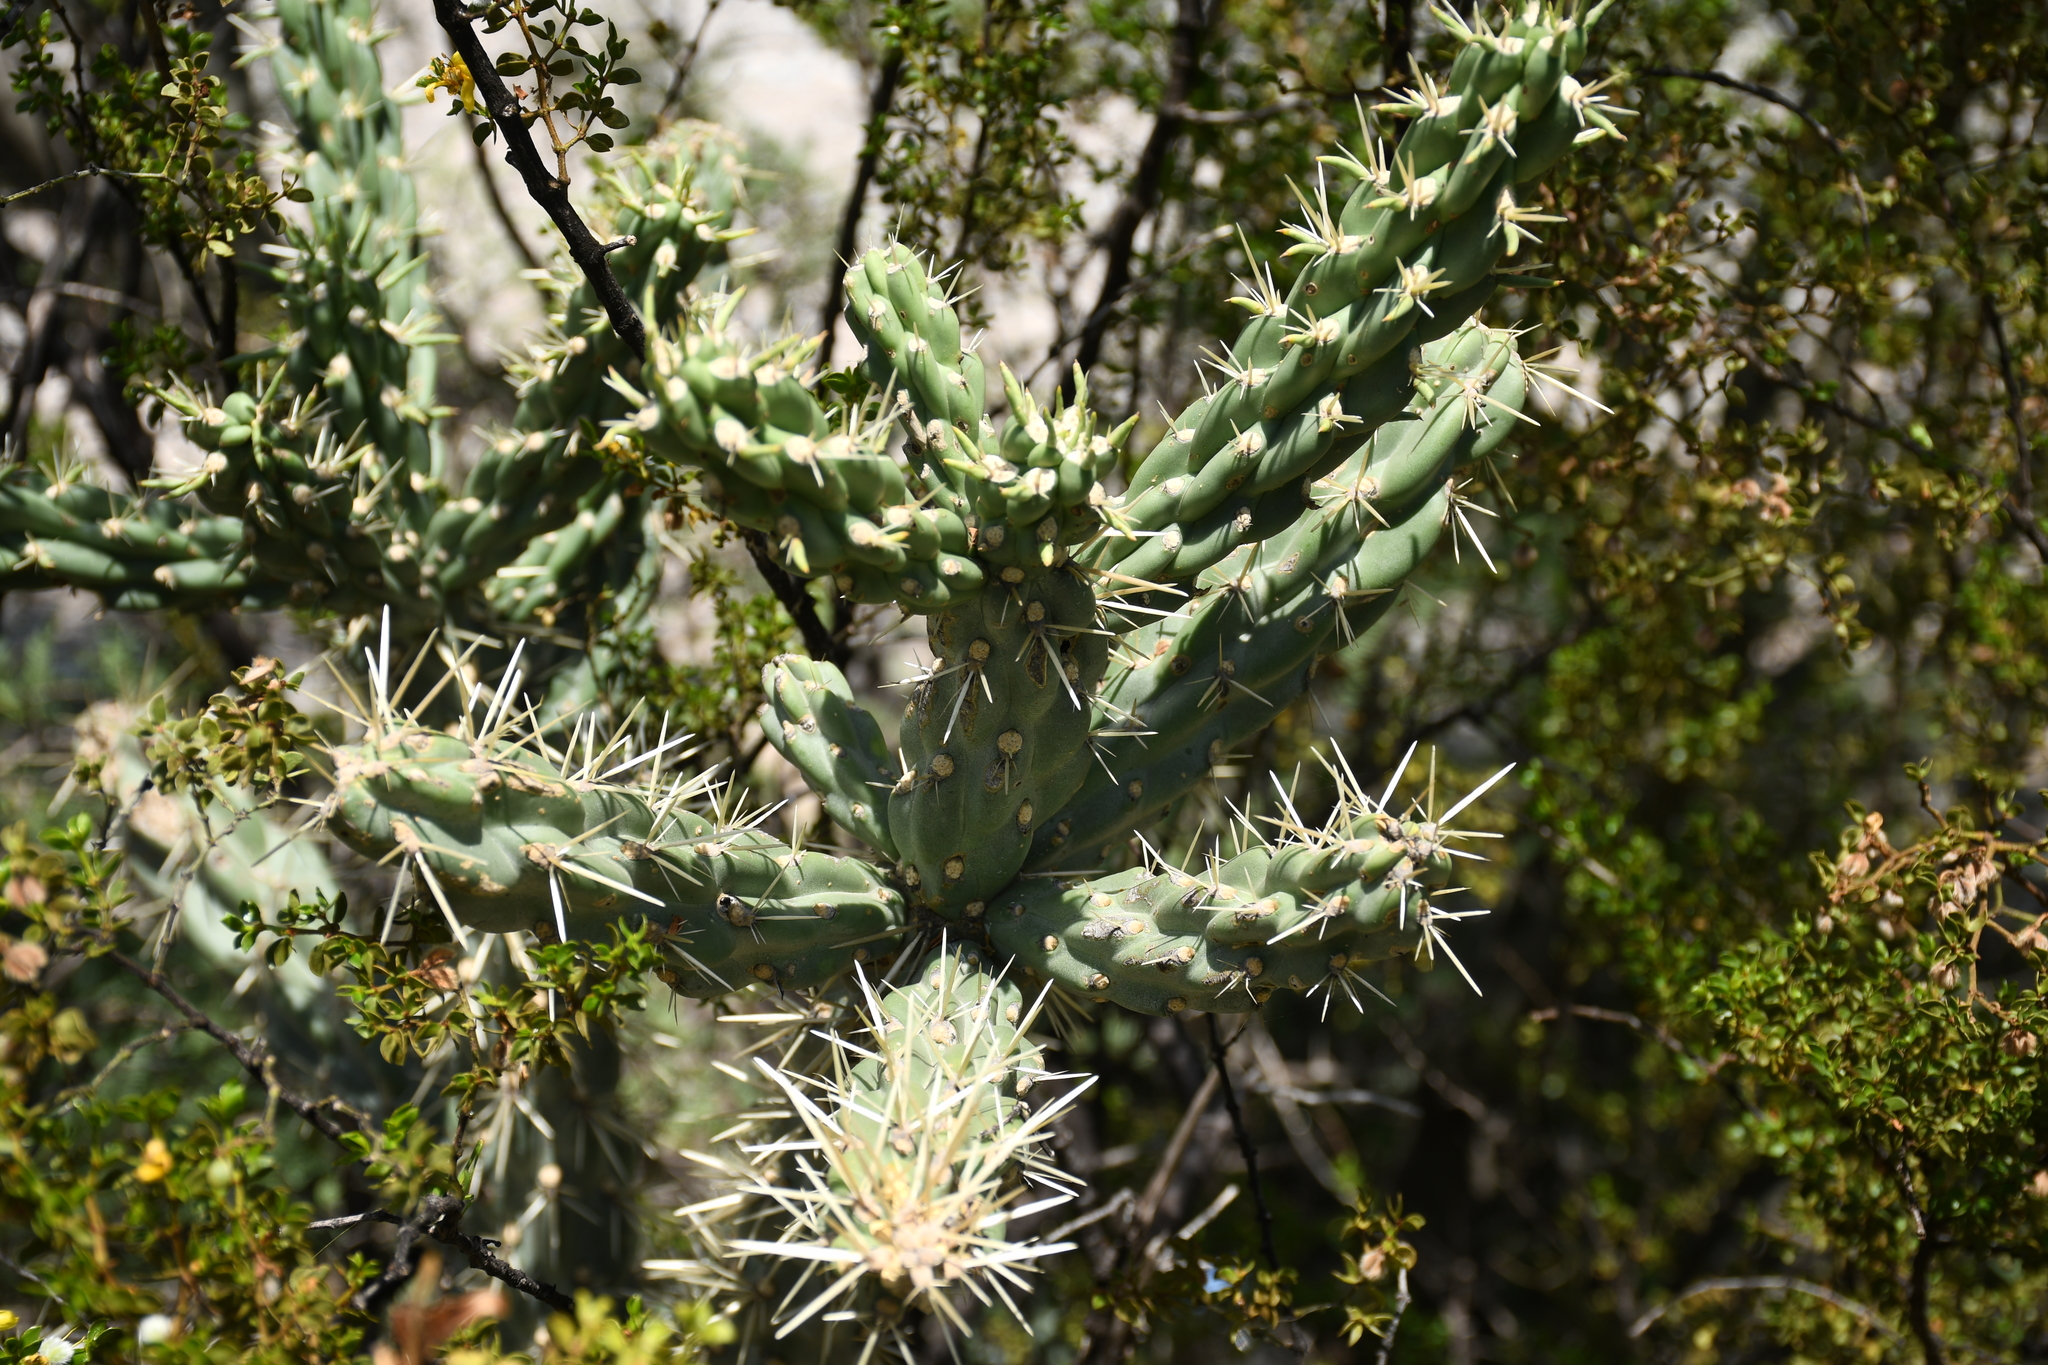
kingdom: Plantae
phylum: Tracheophyta
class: Magnoliopsida
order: Caryophyllales
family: Cactaceae
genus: Cylindropuntia
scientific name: Cylindropuntia imbricata
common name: Candelabrum cactus
